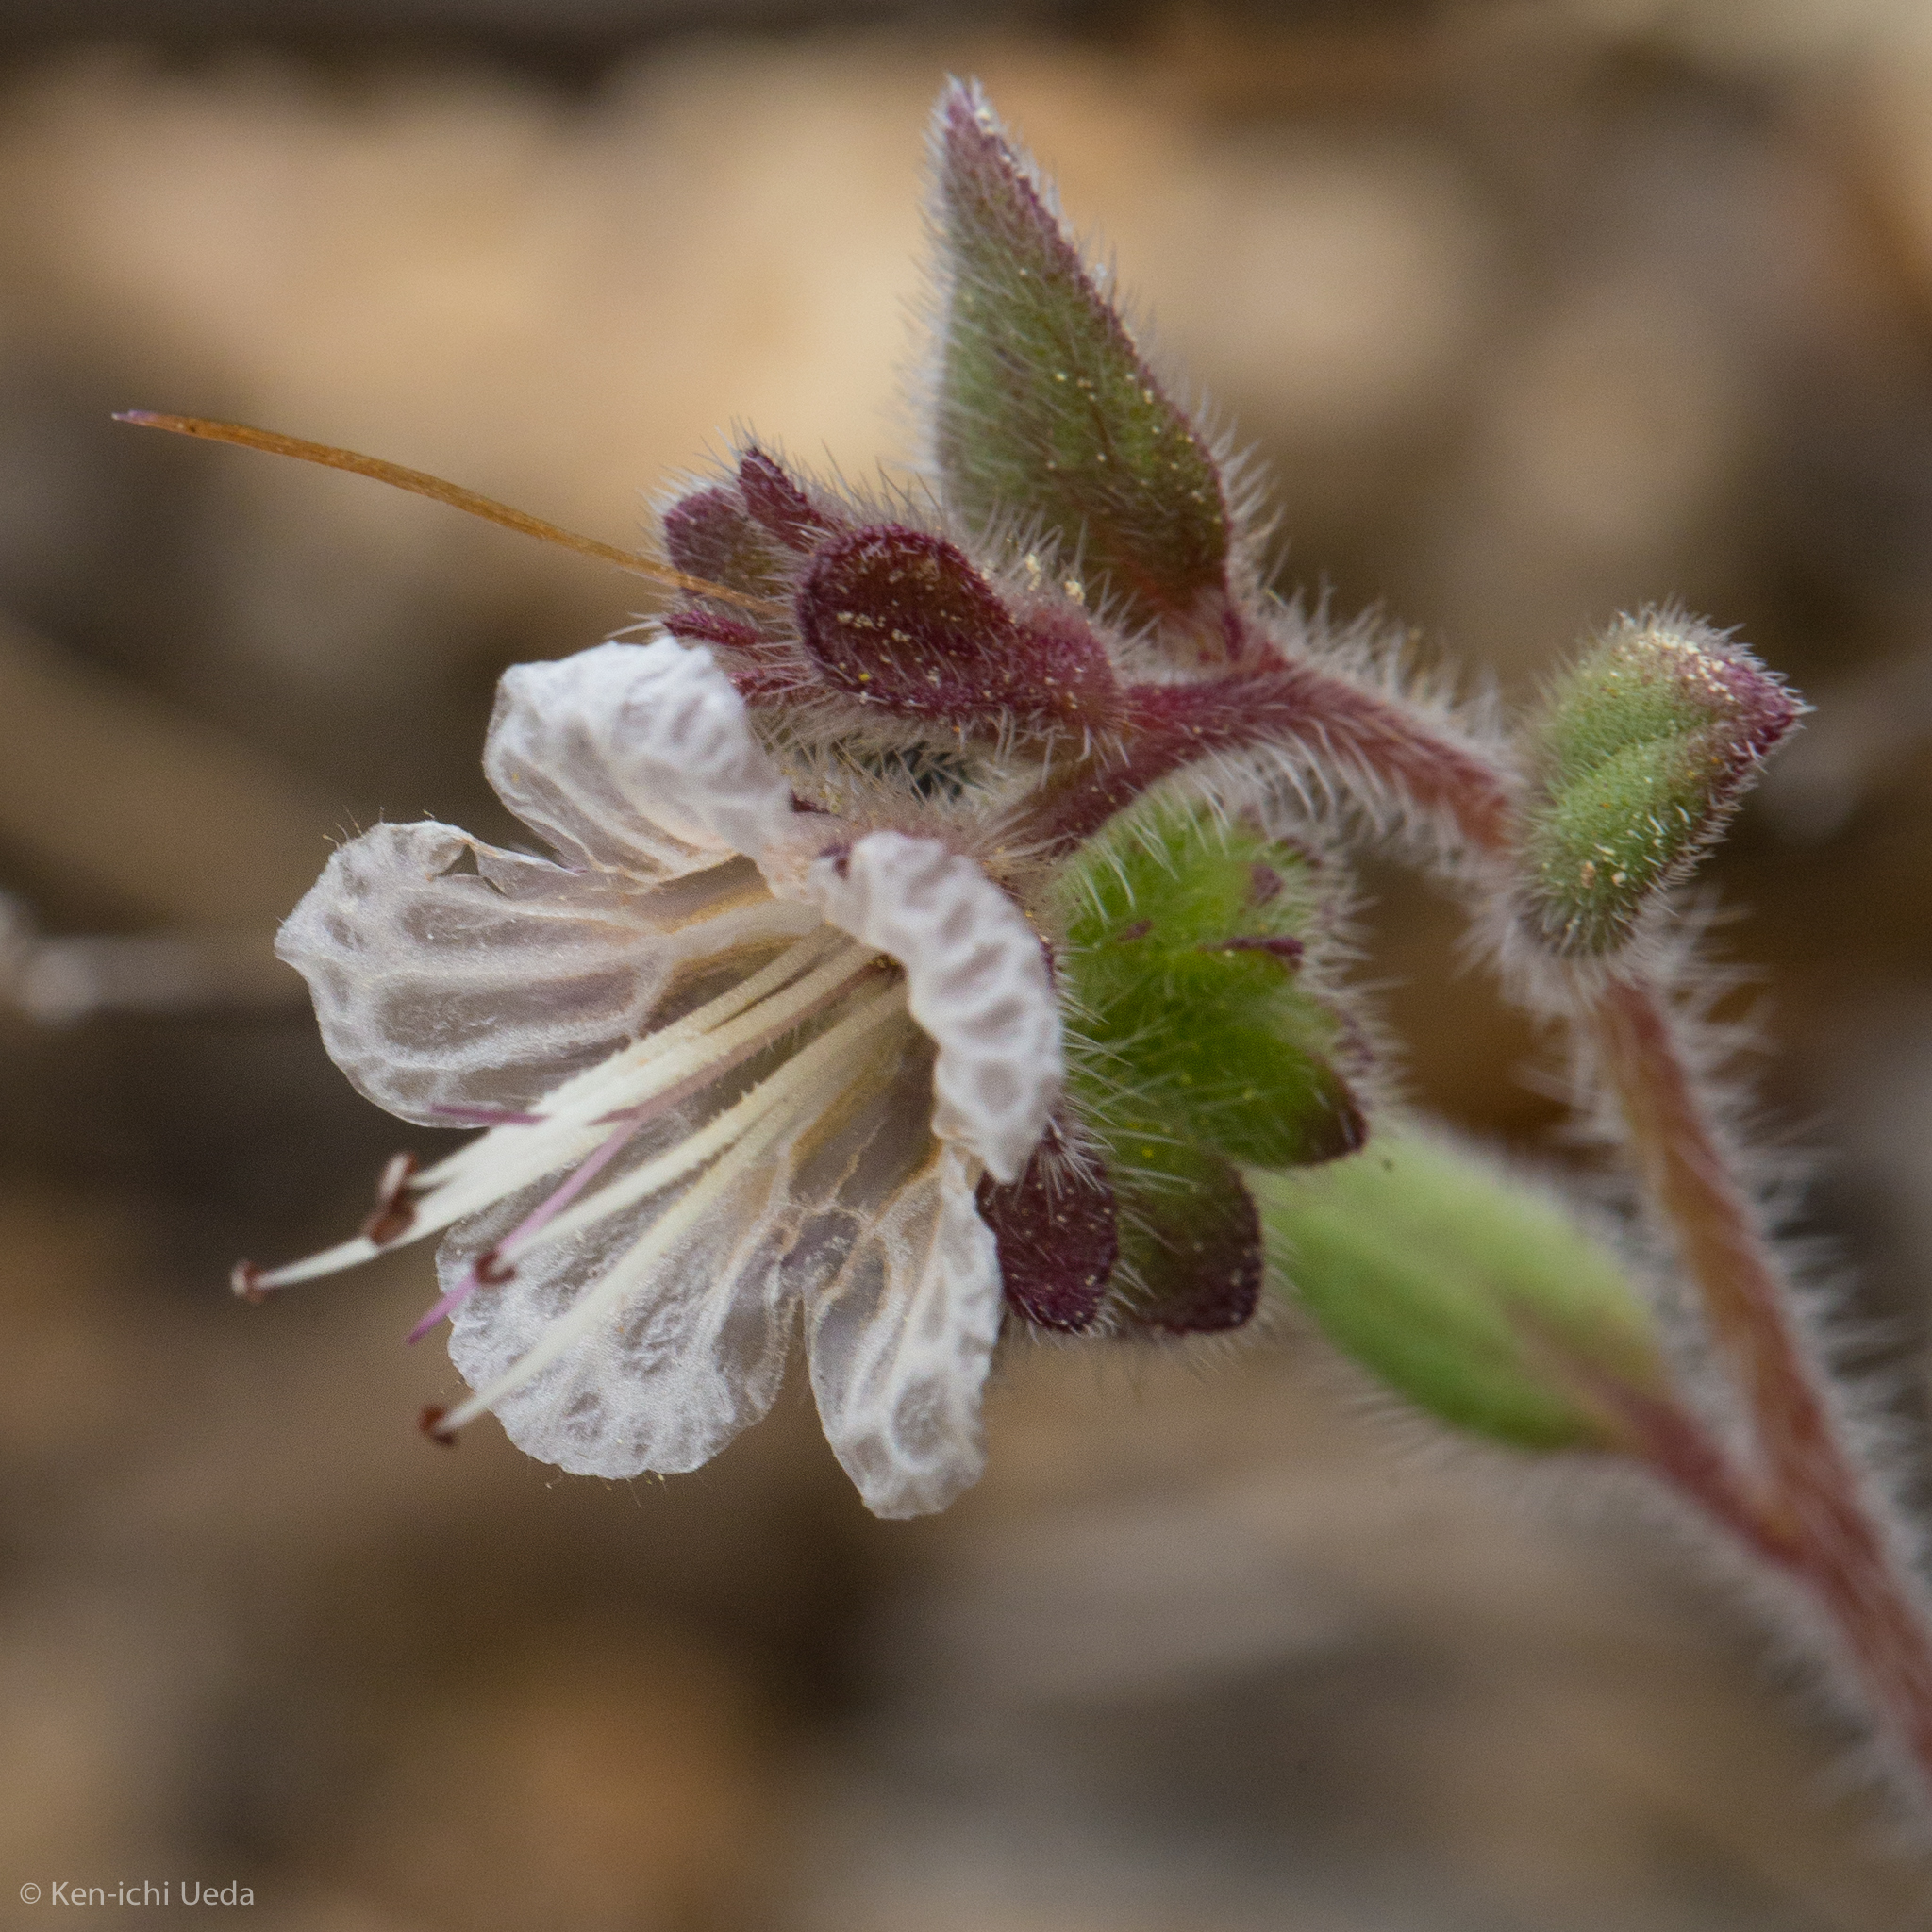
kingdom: Plantae
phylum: Tracheophyta
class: Magnoliopsida
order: Boraginales
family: Hydrophyllaceae
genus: Phacelia
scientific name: Phacelia grisea
